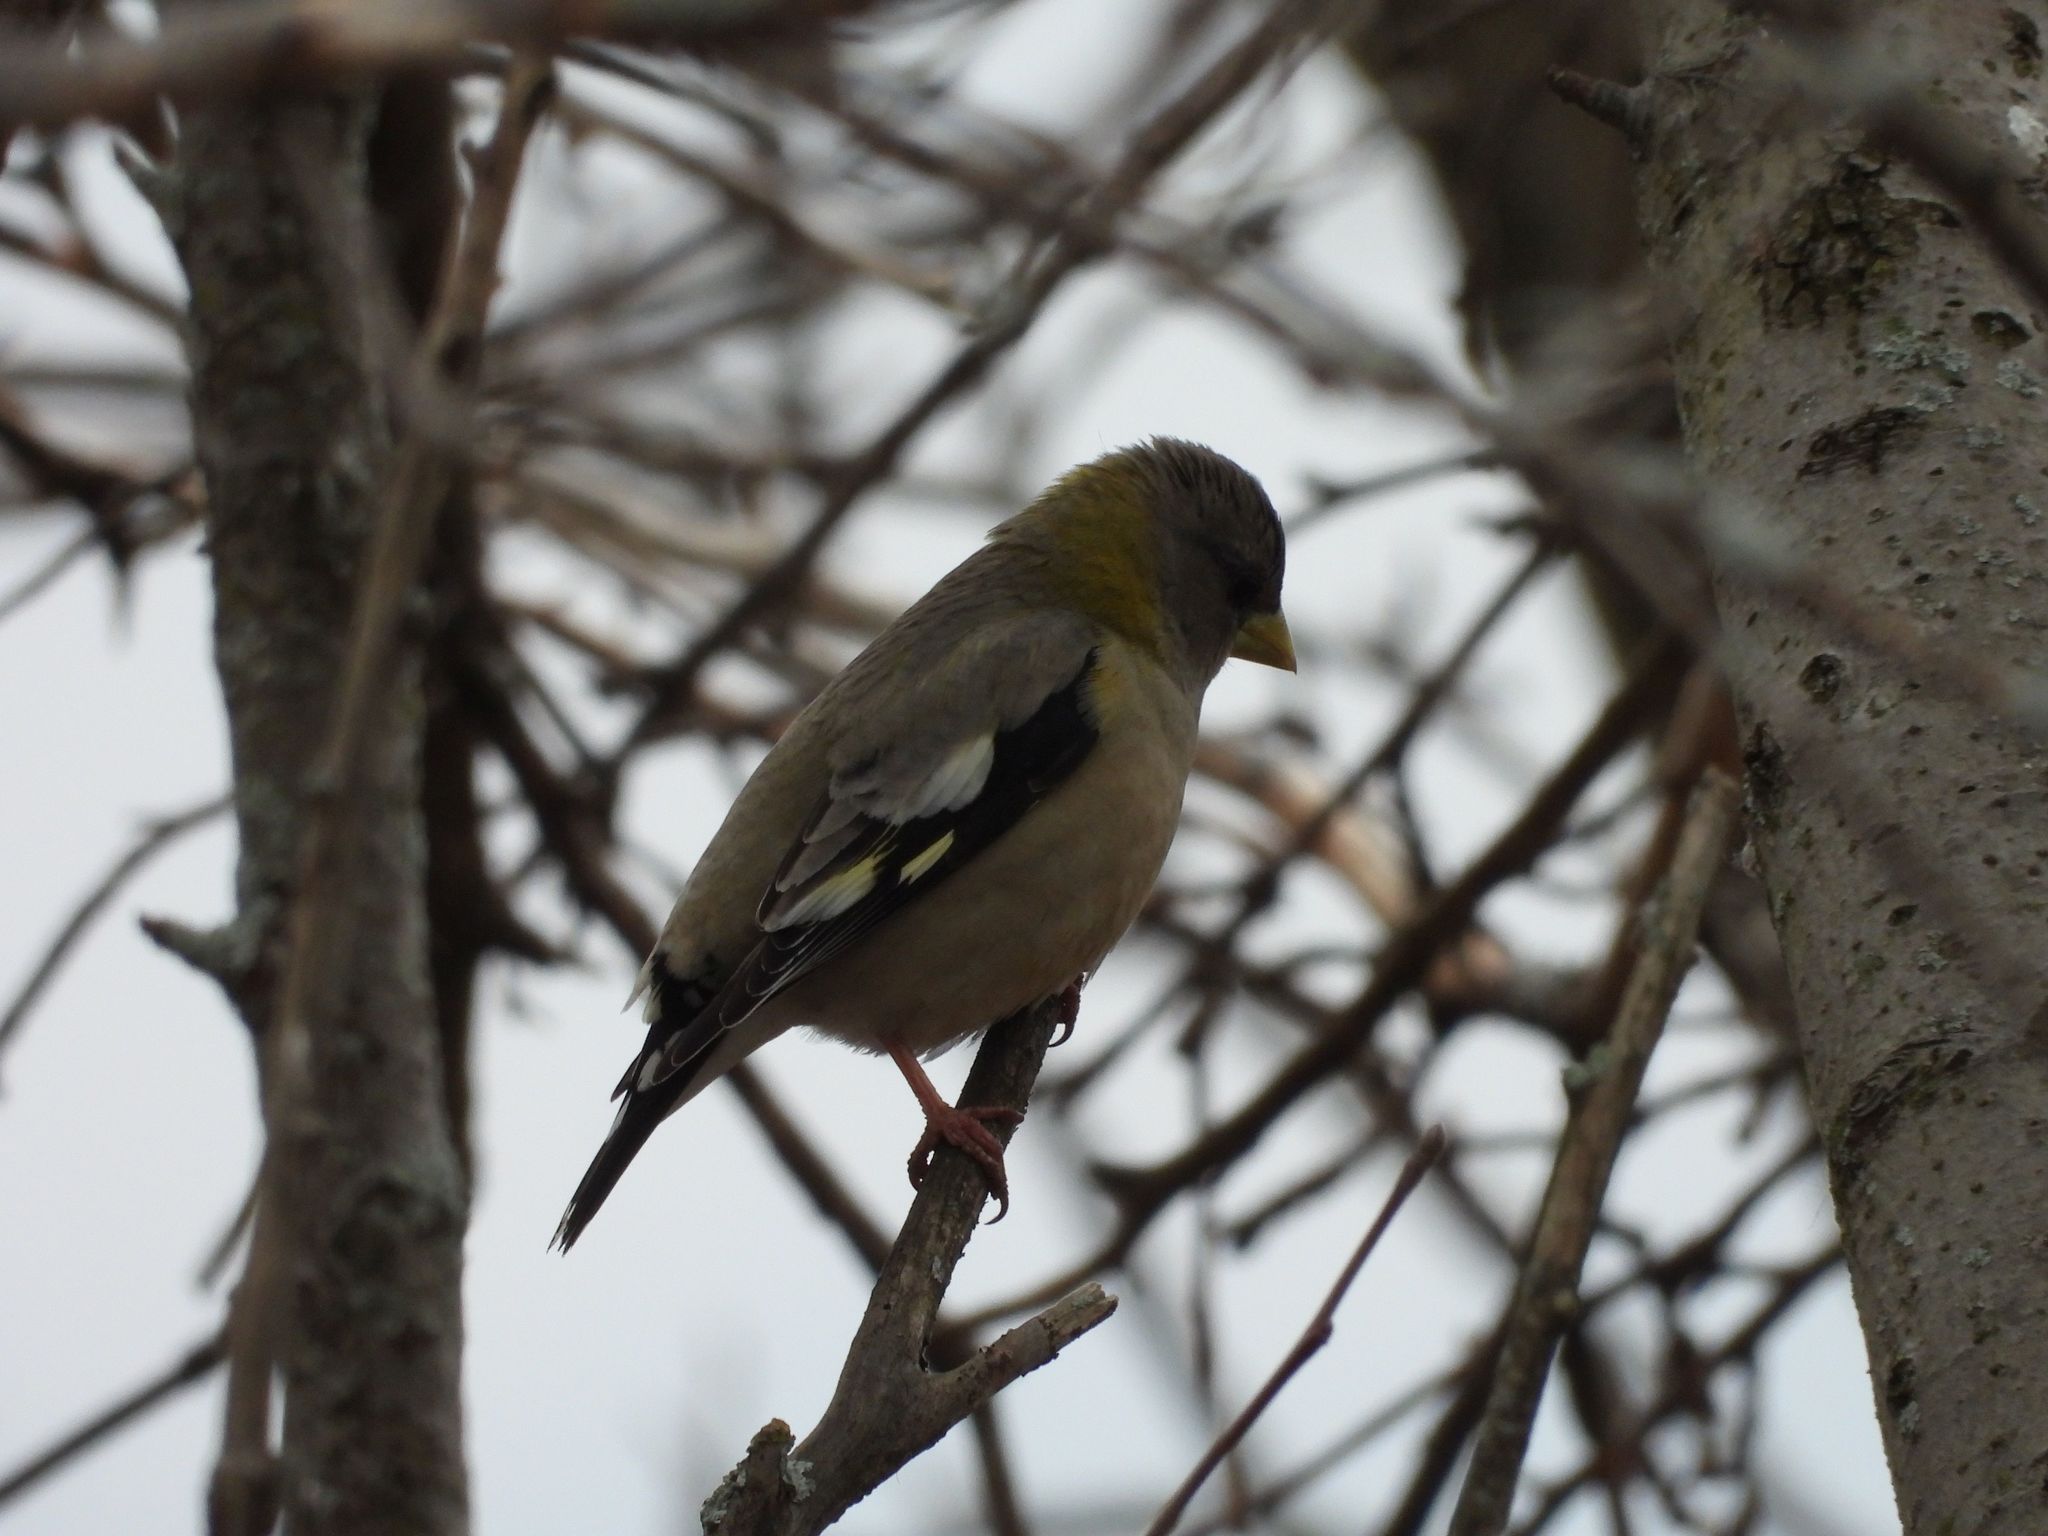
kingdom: Animalia
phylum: Chordata
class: Aves
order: Passeriformes
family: Fringillidae
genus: Hesperiphona
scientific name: Hesperiphona vespertina
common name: Evening grosbeak
